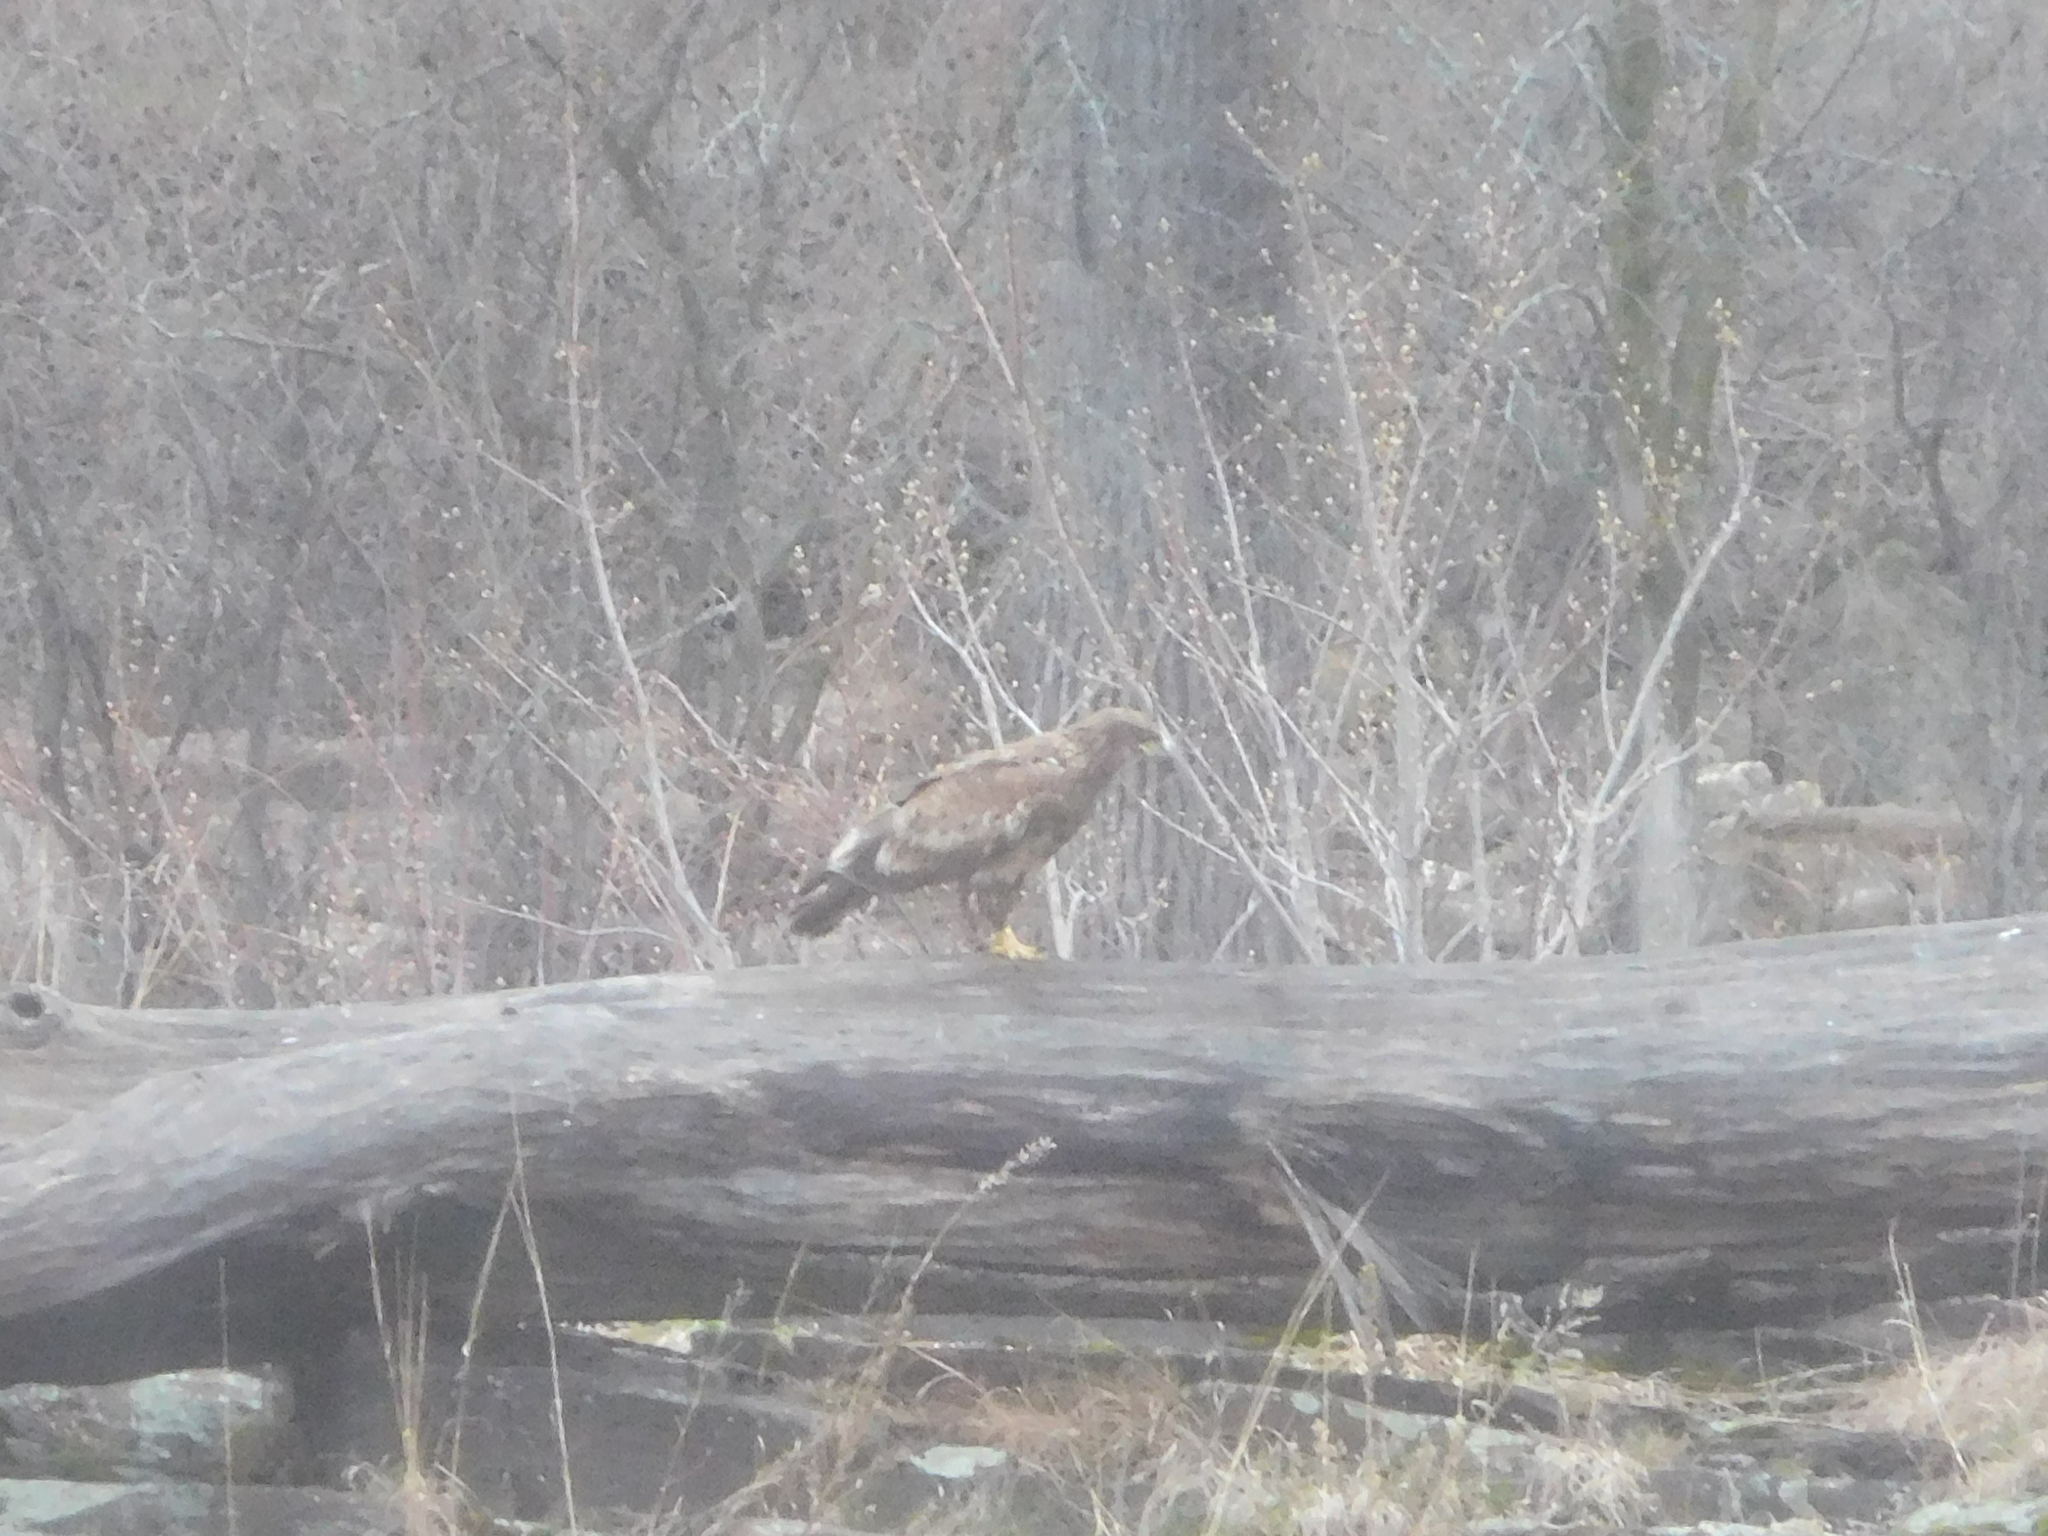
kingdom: Animalia
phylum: Chordata
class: Aves
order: Accipitriformes
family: Accipitridae
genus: Haliaeetus
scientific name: Haliaeetus leucocephalus
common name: Bald eagle
